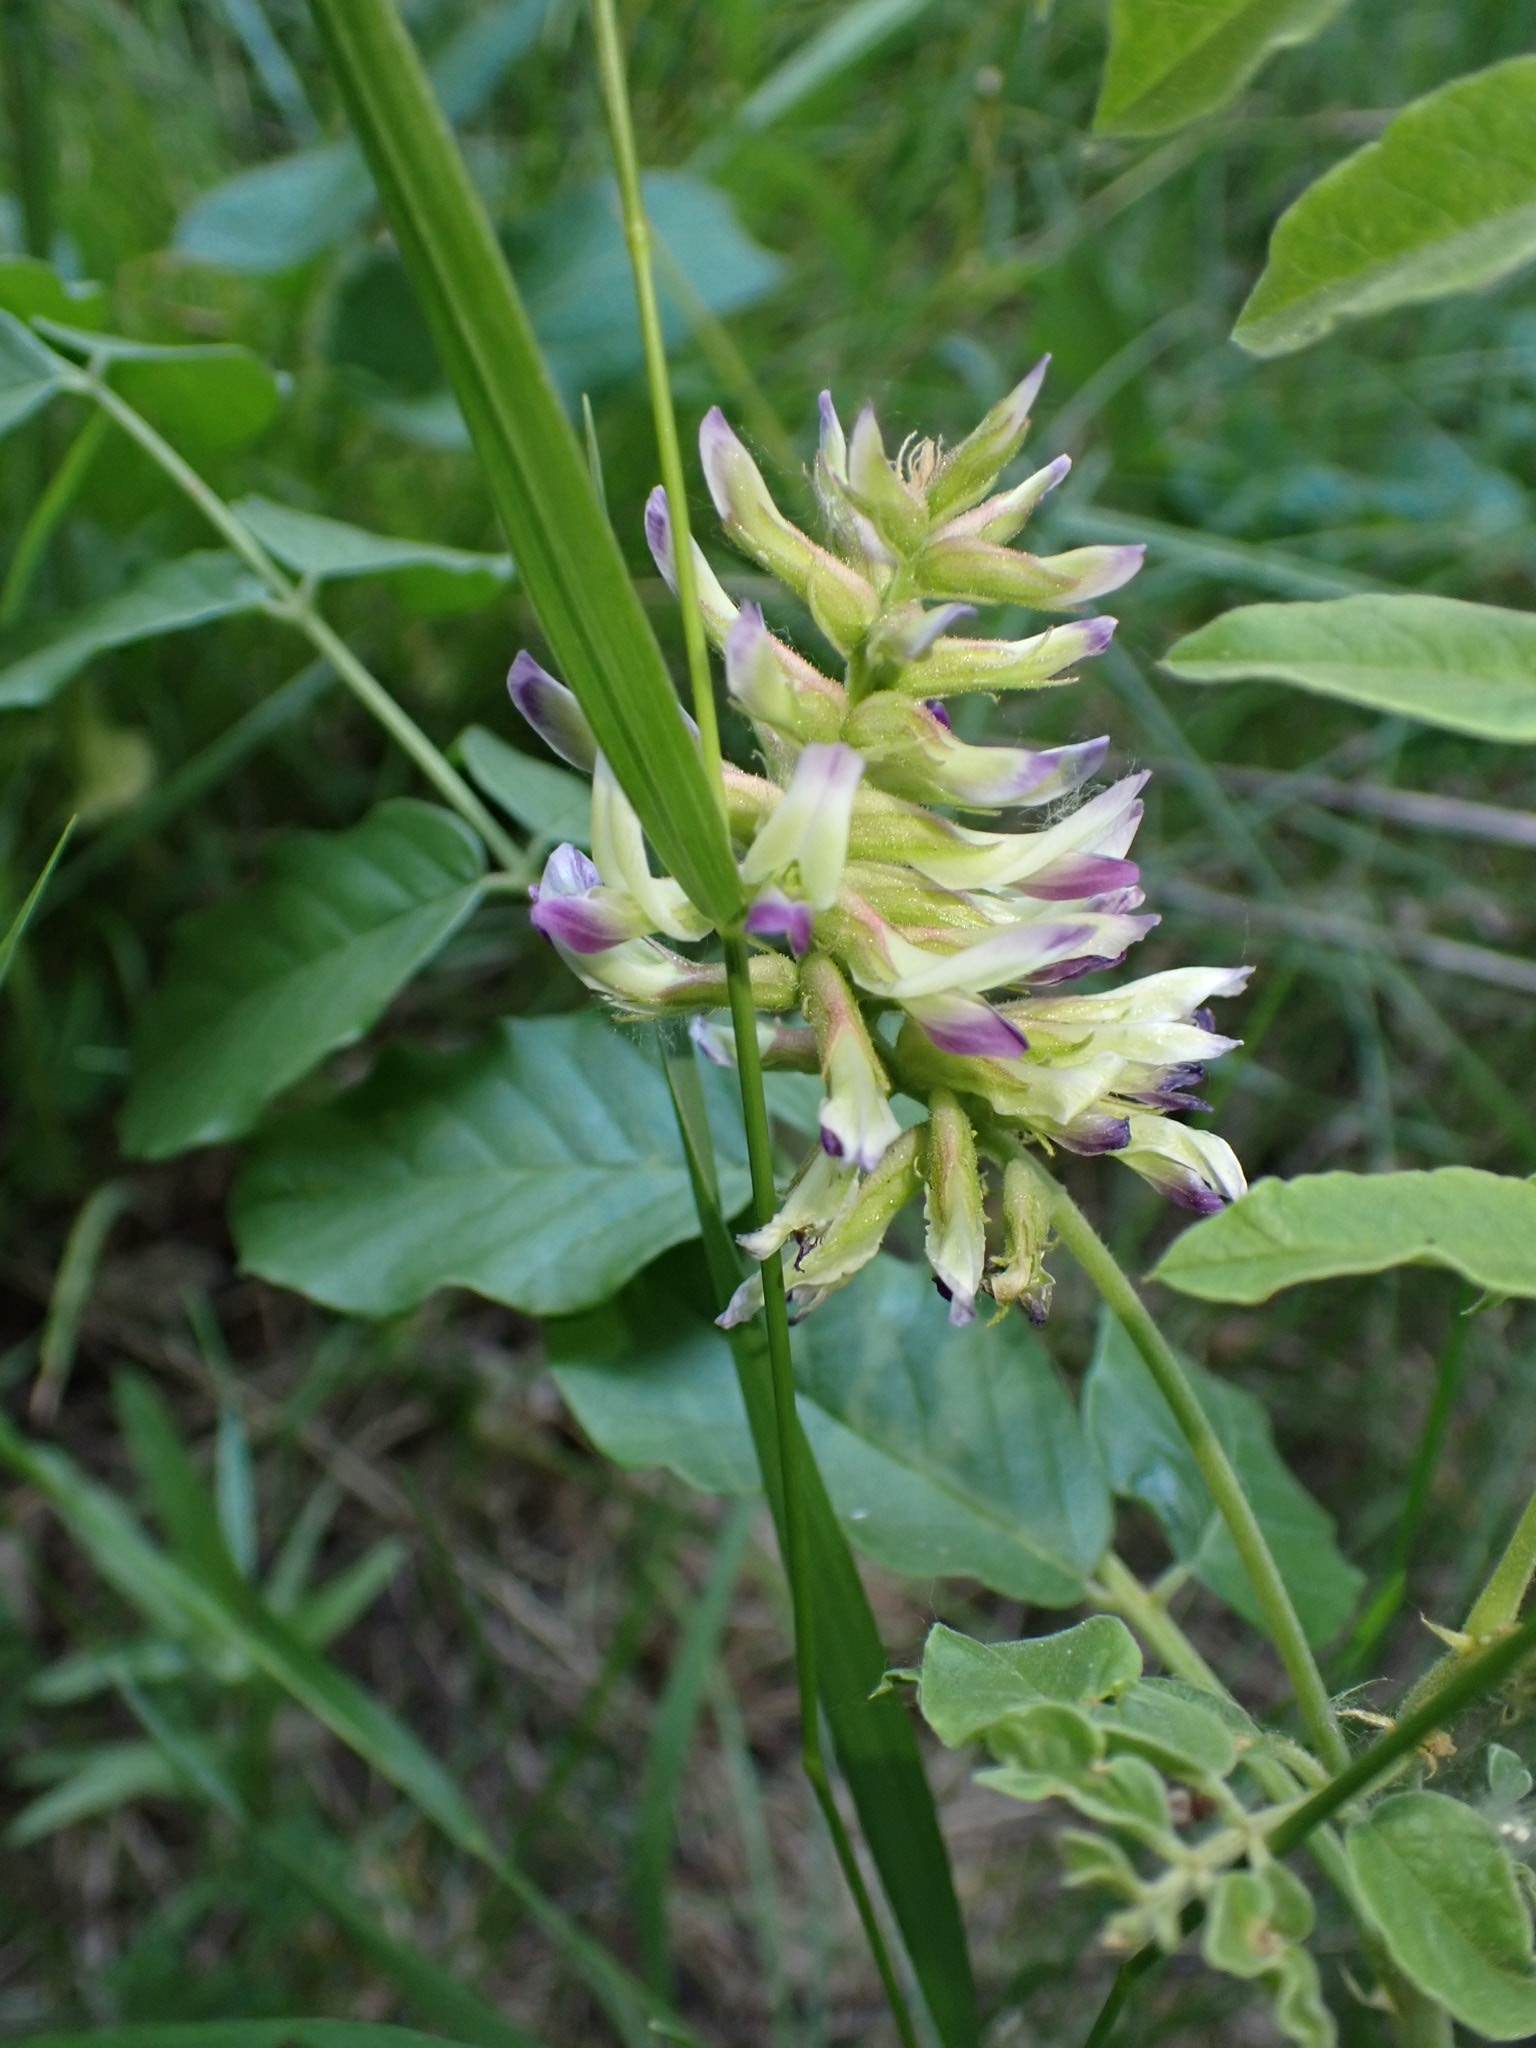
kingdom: Plantae
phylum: Tracheophyta
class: Magnoliopsida
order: Fabales
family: Fabaceae
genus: Glycyrrhiza
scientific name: Glycyrrhiza uralensis
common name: Chinese licorice
